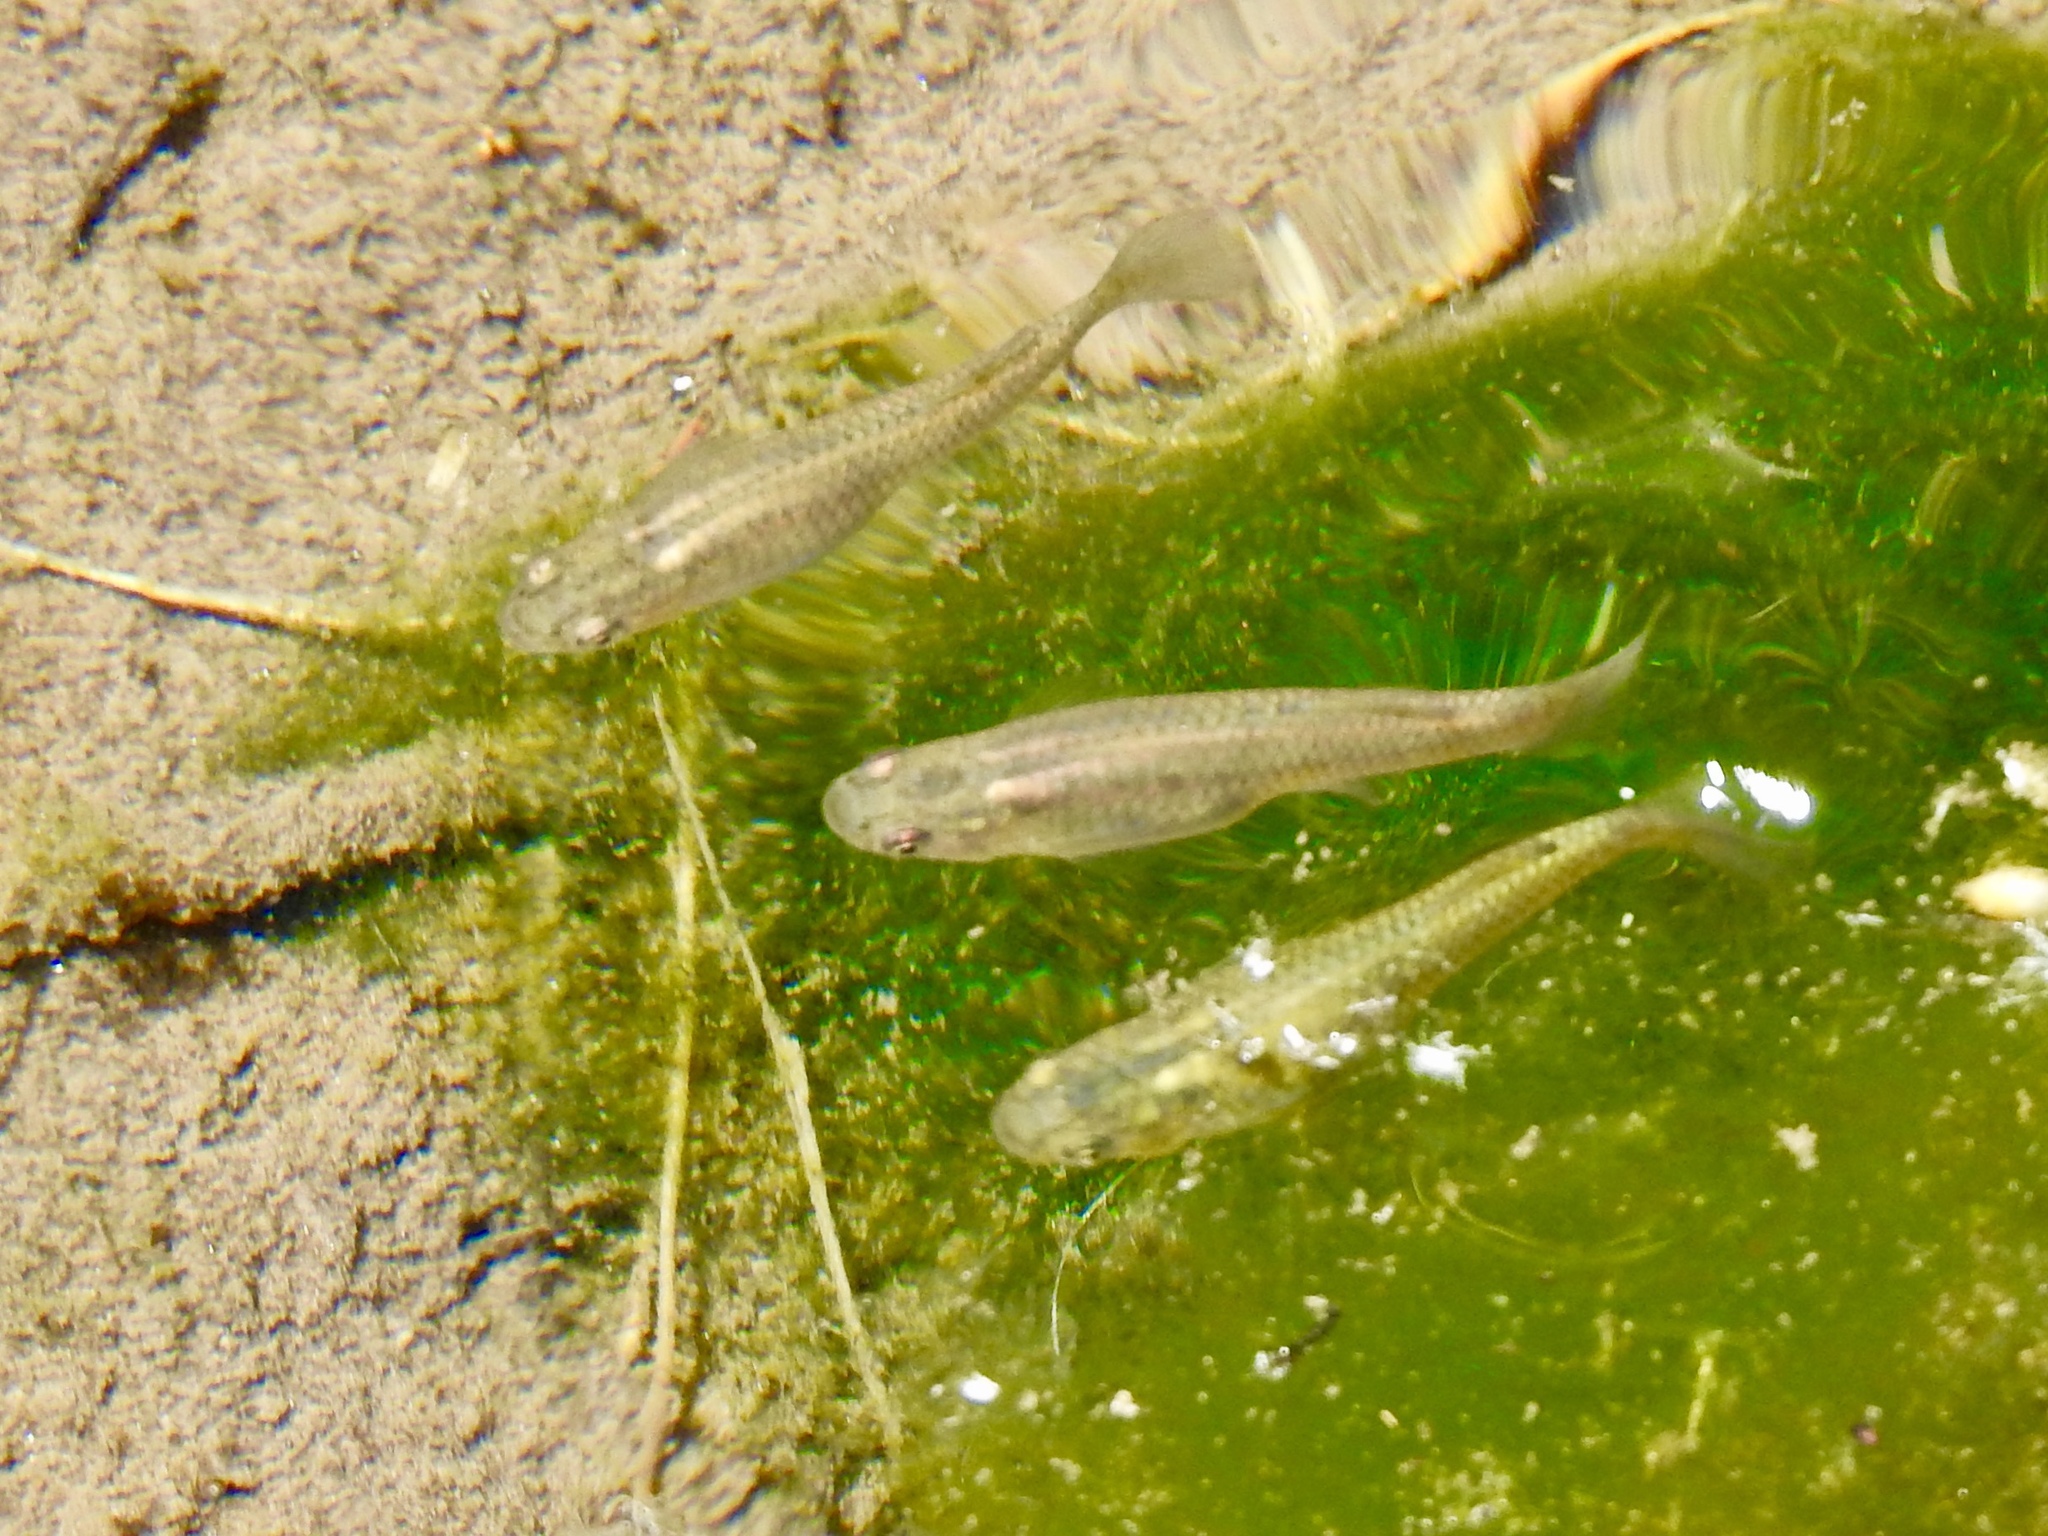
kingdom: Animalia
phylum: Chordata
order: Cyprinodontiformes
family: Poeciliidae
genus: Gambusia
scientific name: Gambusia affinis
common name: Mosquitofish
